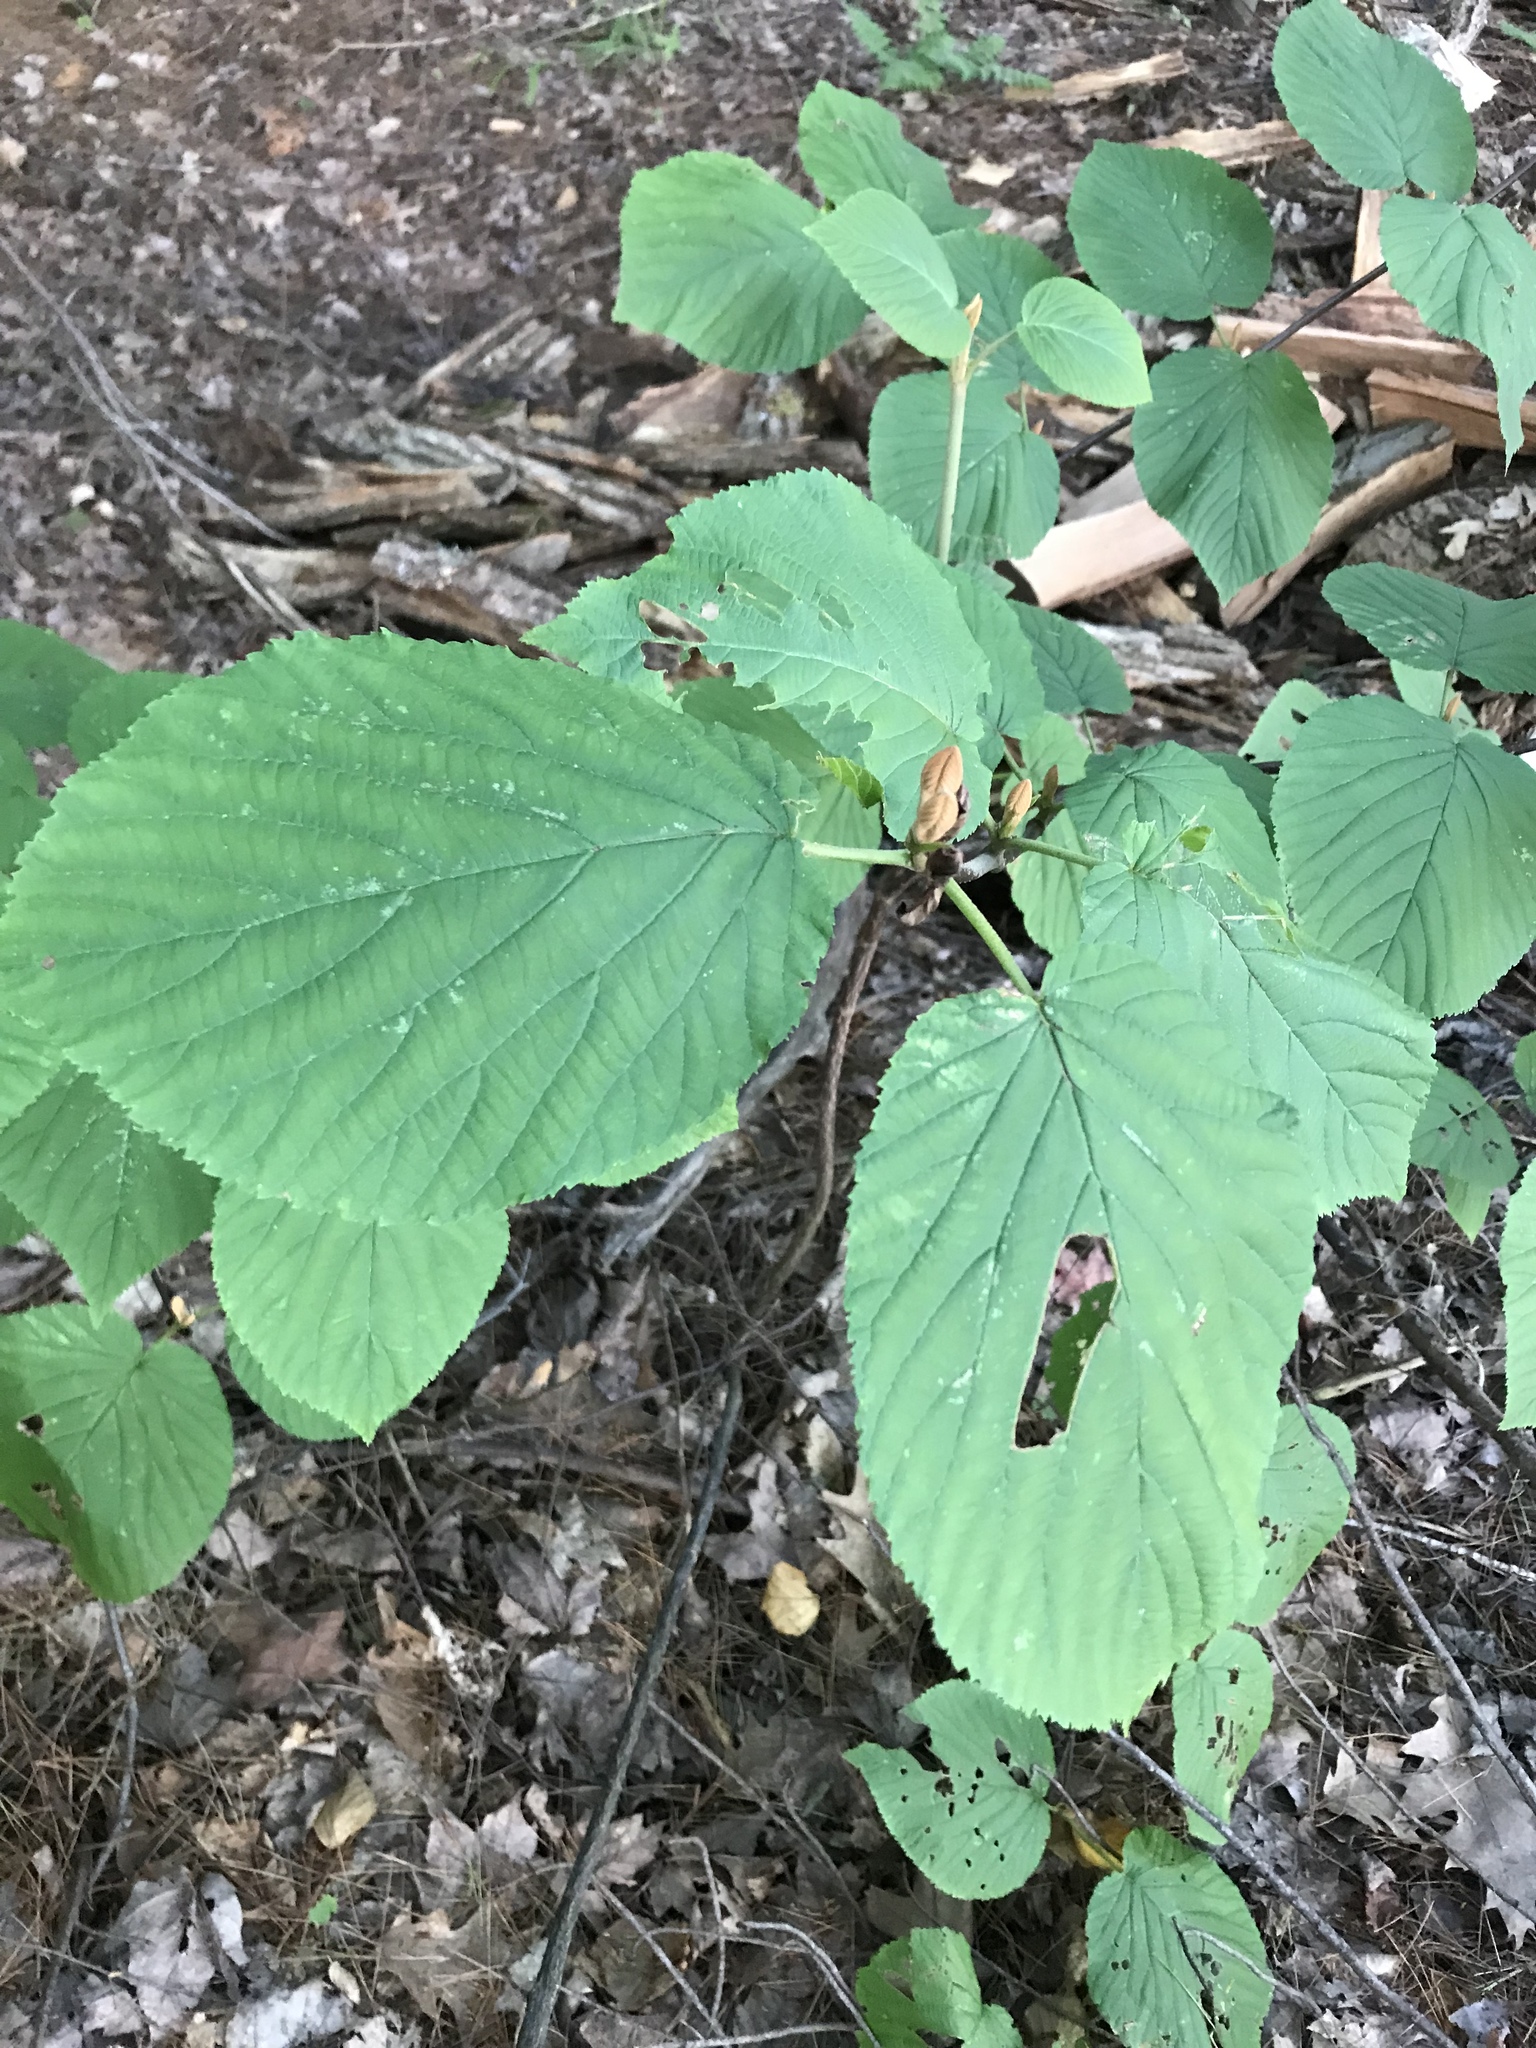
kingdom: Plantae
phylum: Tracheophyta
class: Magnoliopsida
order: Dipsacales
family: Viburnaceae
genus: Viburnum
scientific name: Viburnum lantanoides
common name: Hobblebush
